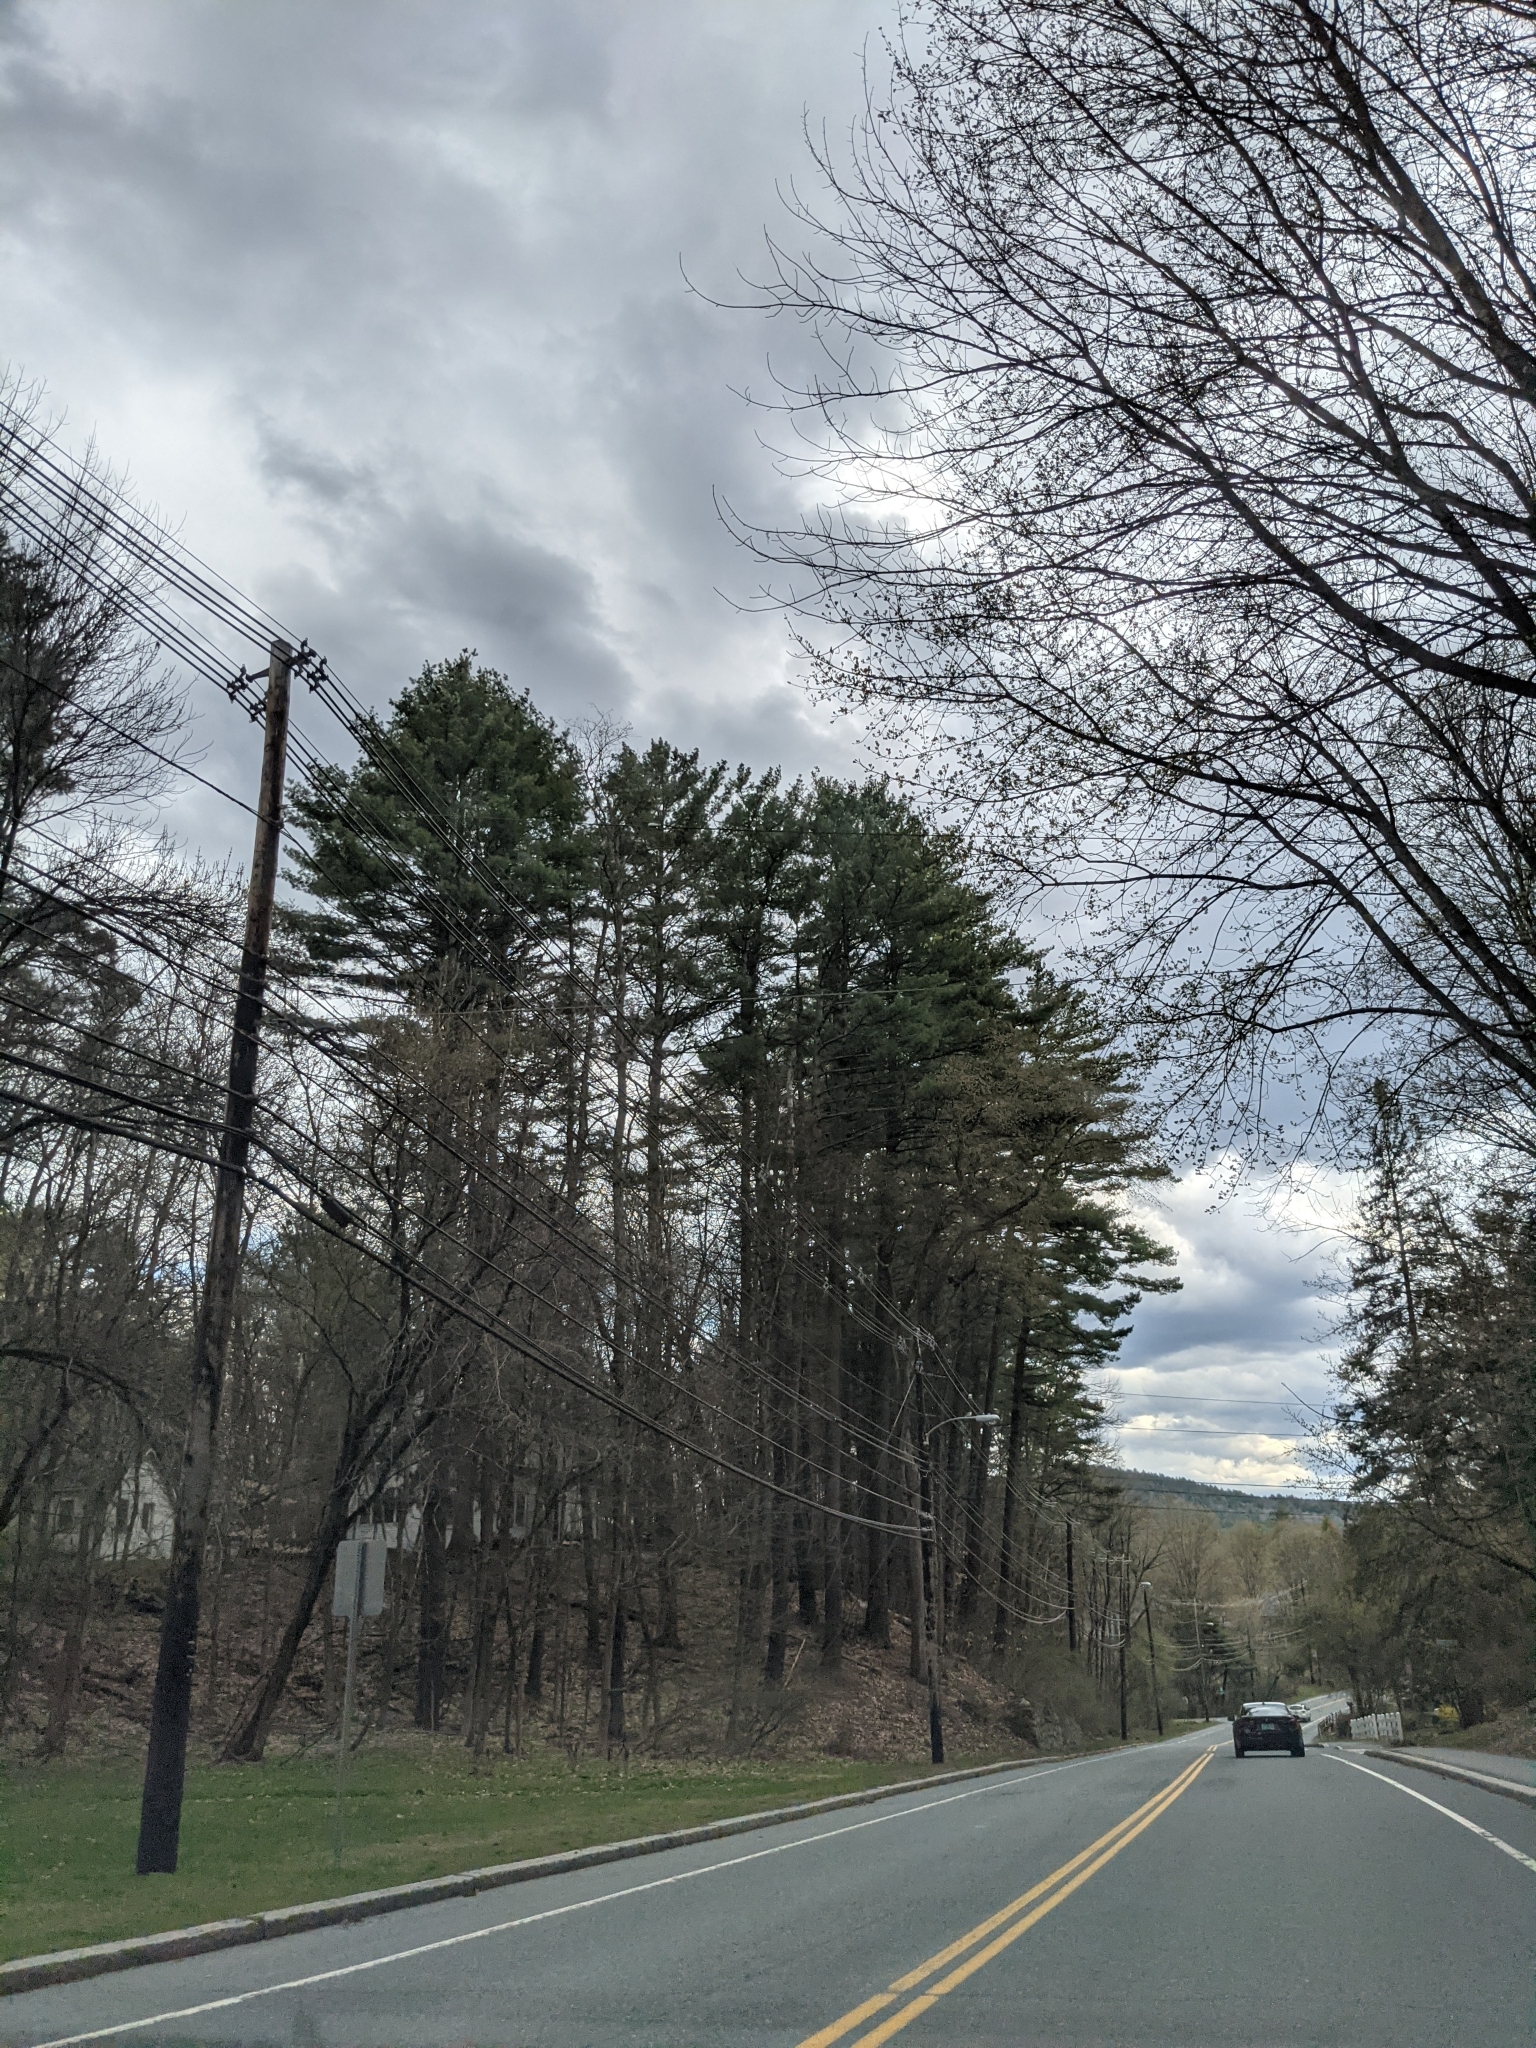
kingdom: Plantae
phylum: Tracheophyta
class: Pinopsida
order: Pinales
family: Pinaceae
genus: Pinus
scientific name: Pinus strobus
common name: Weymouth pine
